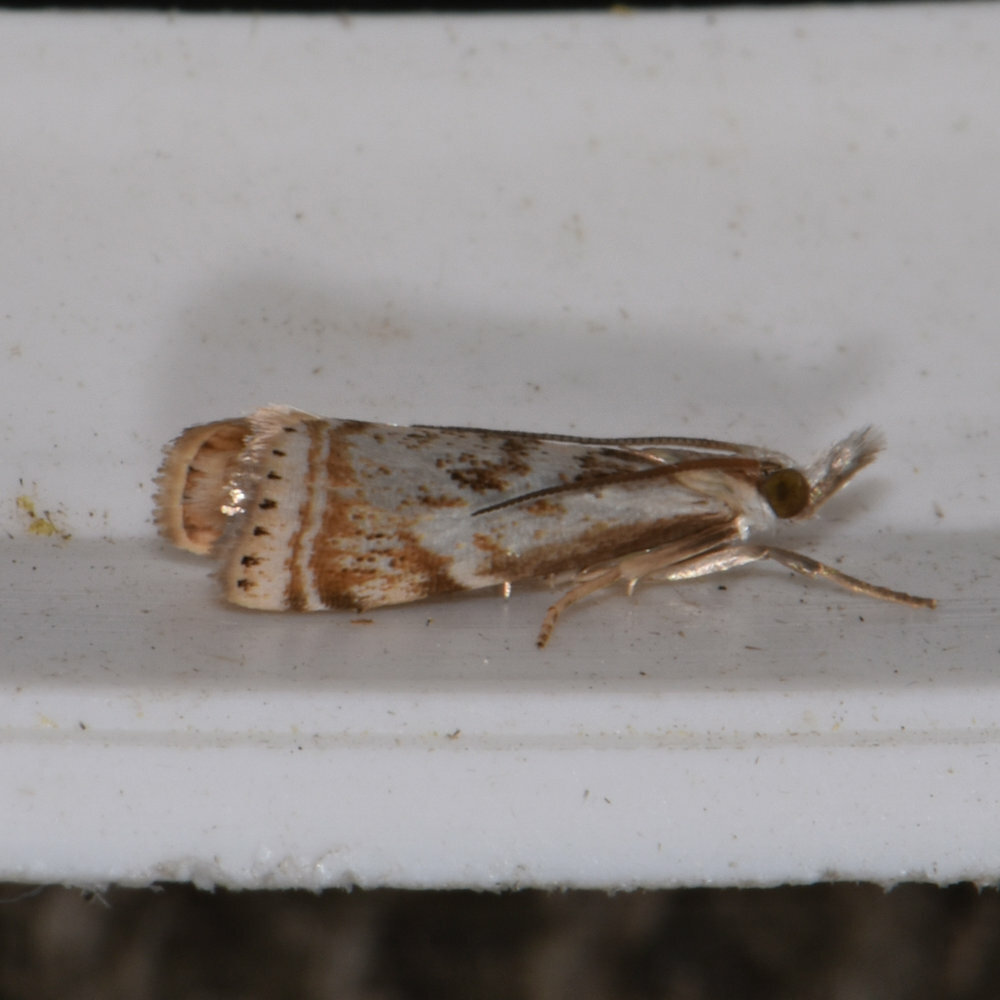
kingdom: Animalia
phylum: Arthropoda
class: Insecta
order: Lepidoptera
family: Crambidae
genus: Microcrambus
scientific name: Microcrambus elegans
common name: Elegant grass-veneer
